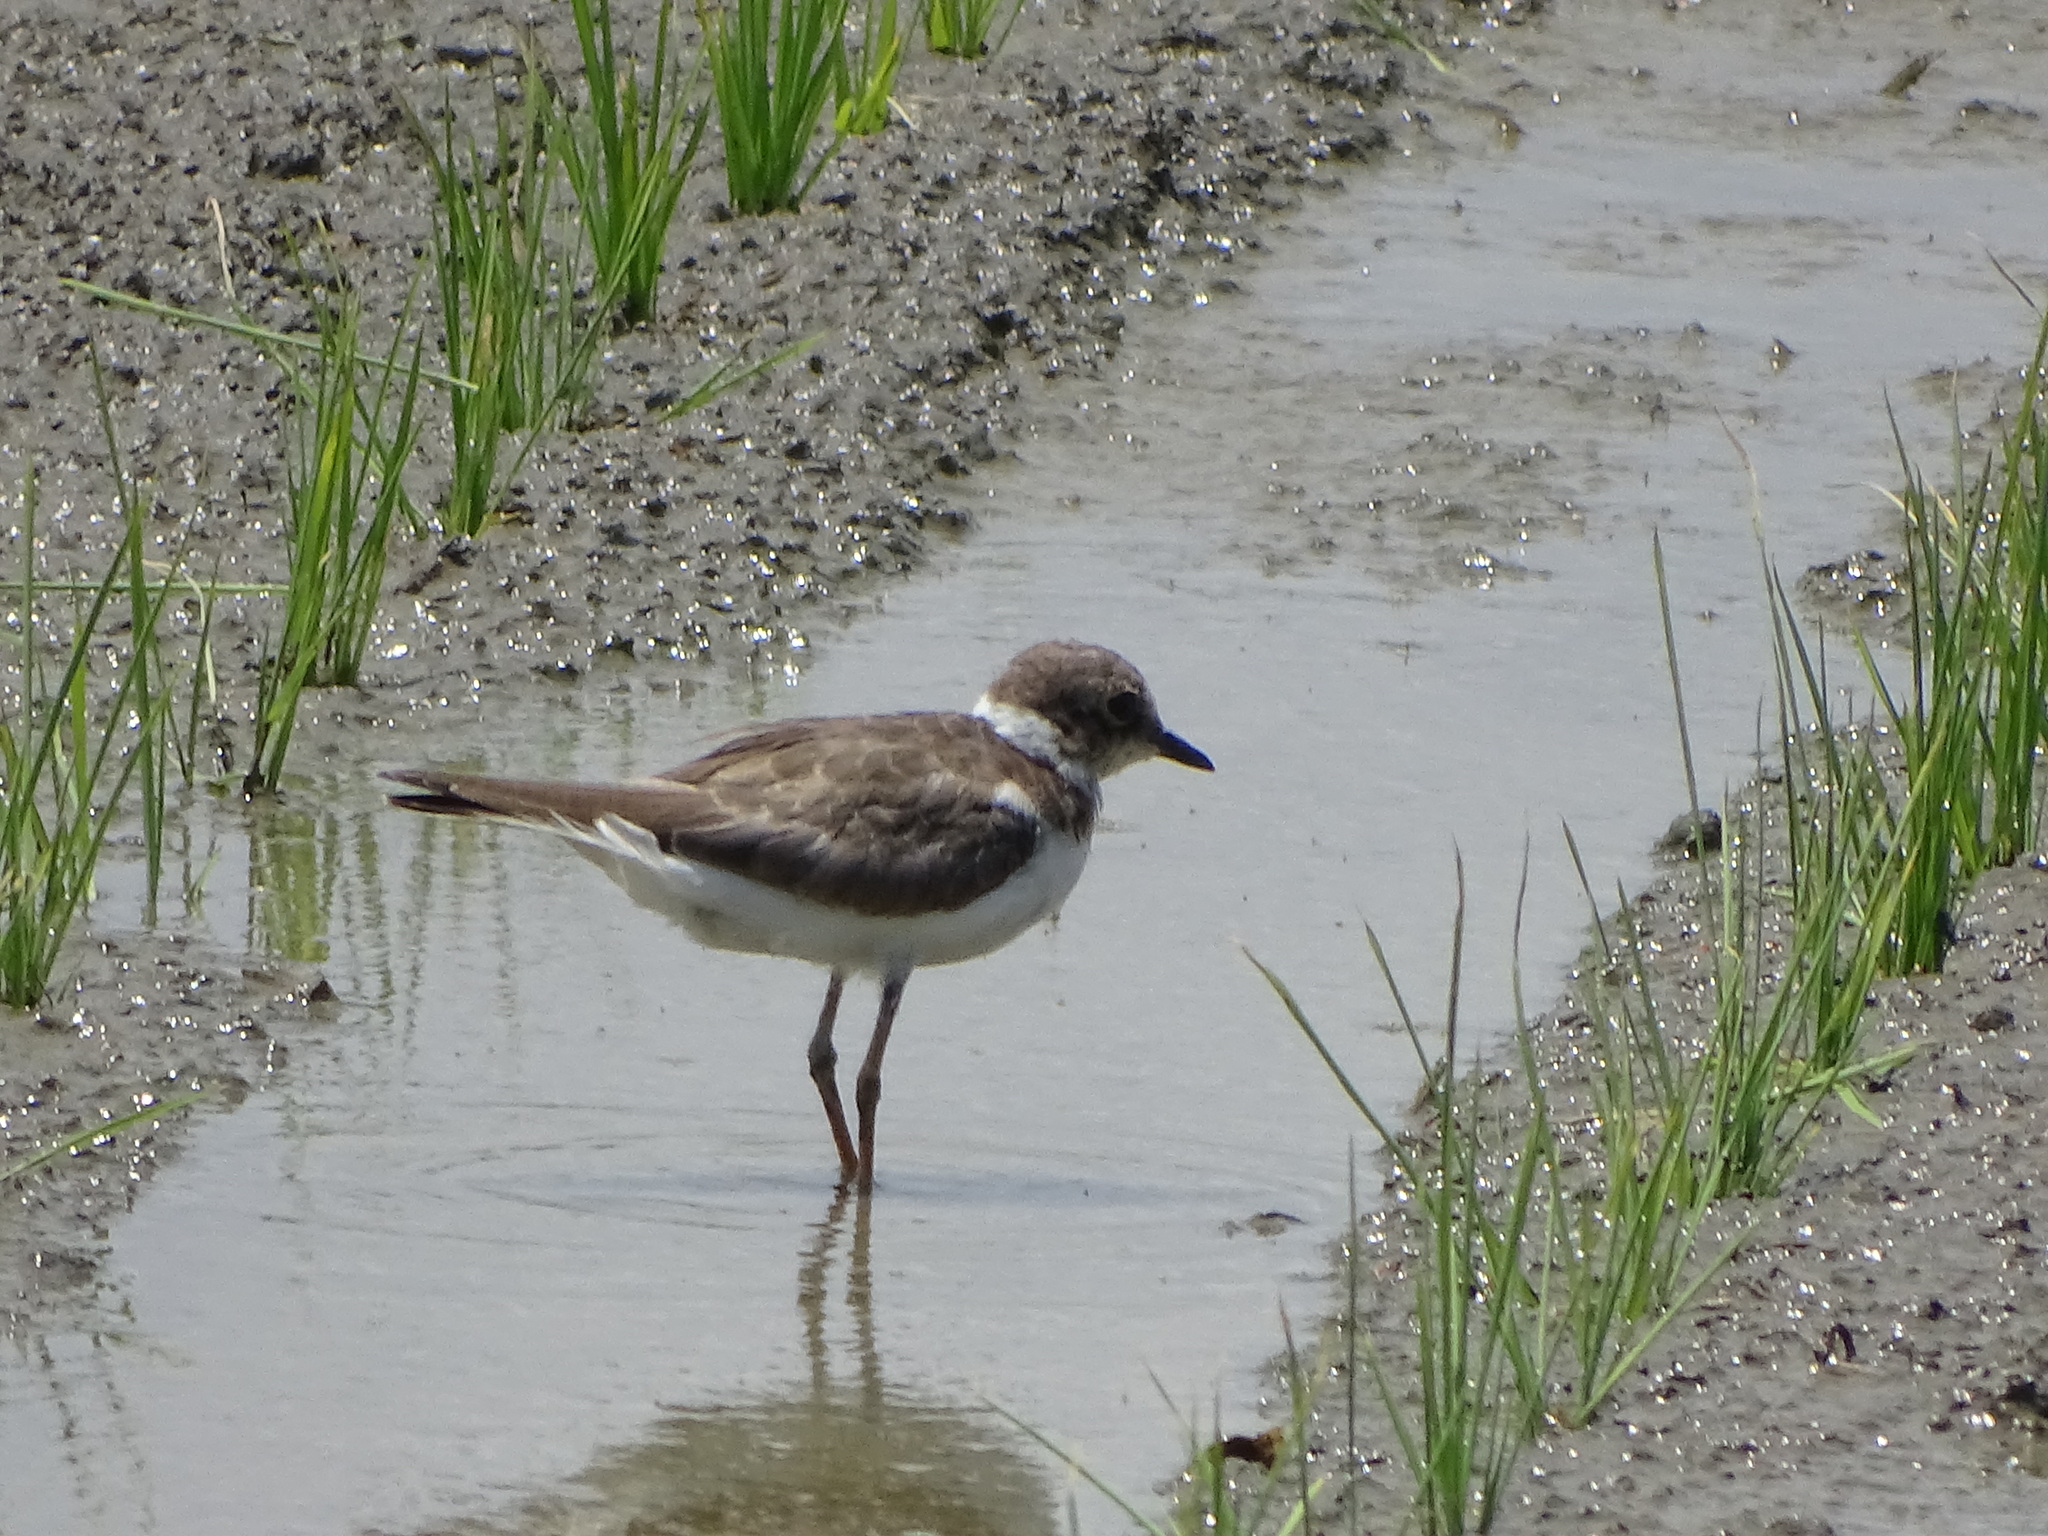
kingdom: Animalia
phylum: Chordata
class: Aves
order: Charadriiformes
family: Charadriidae
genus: Charadrius
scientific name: Charadrius dubius
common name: Little ringed plover
